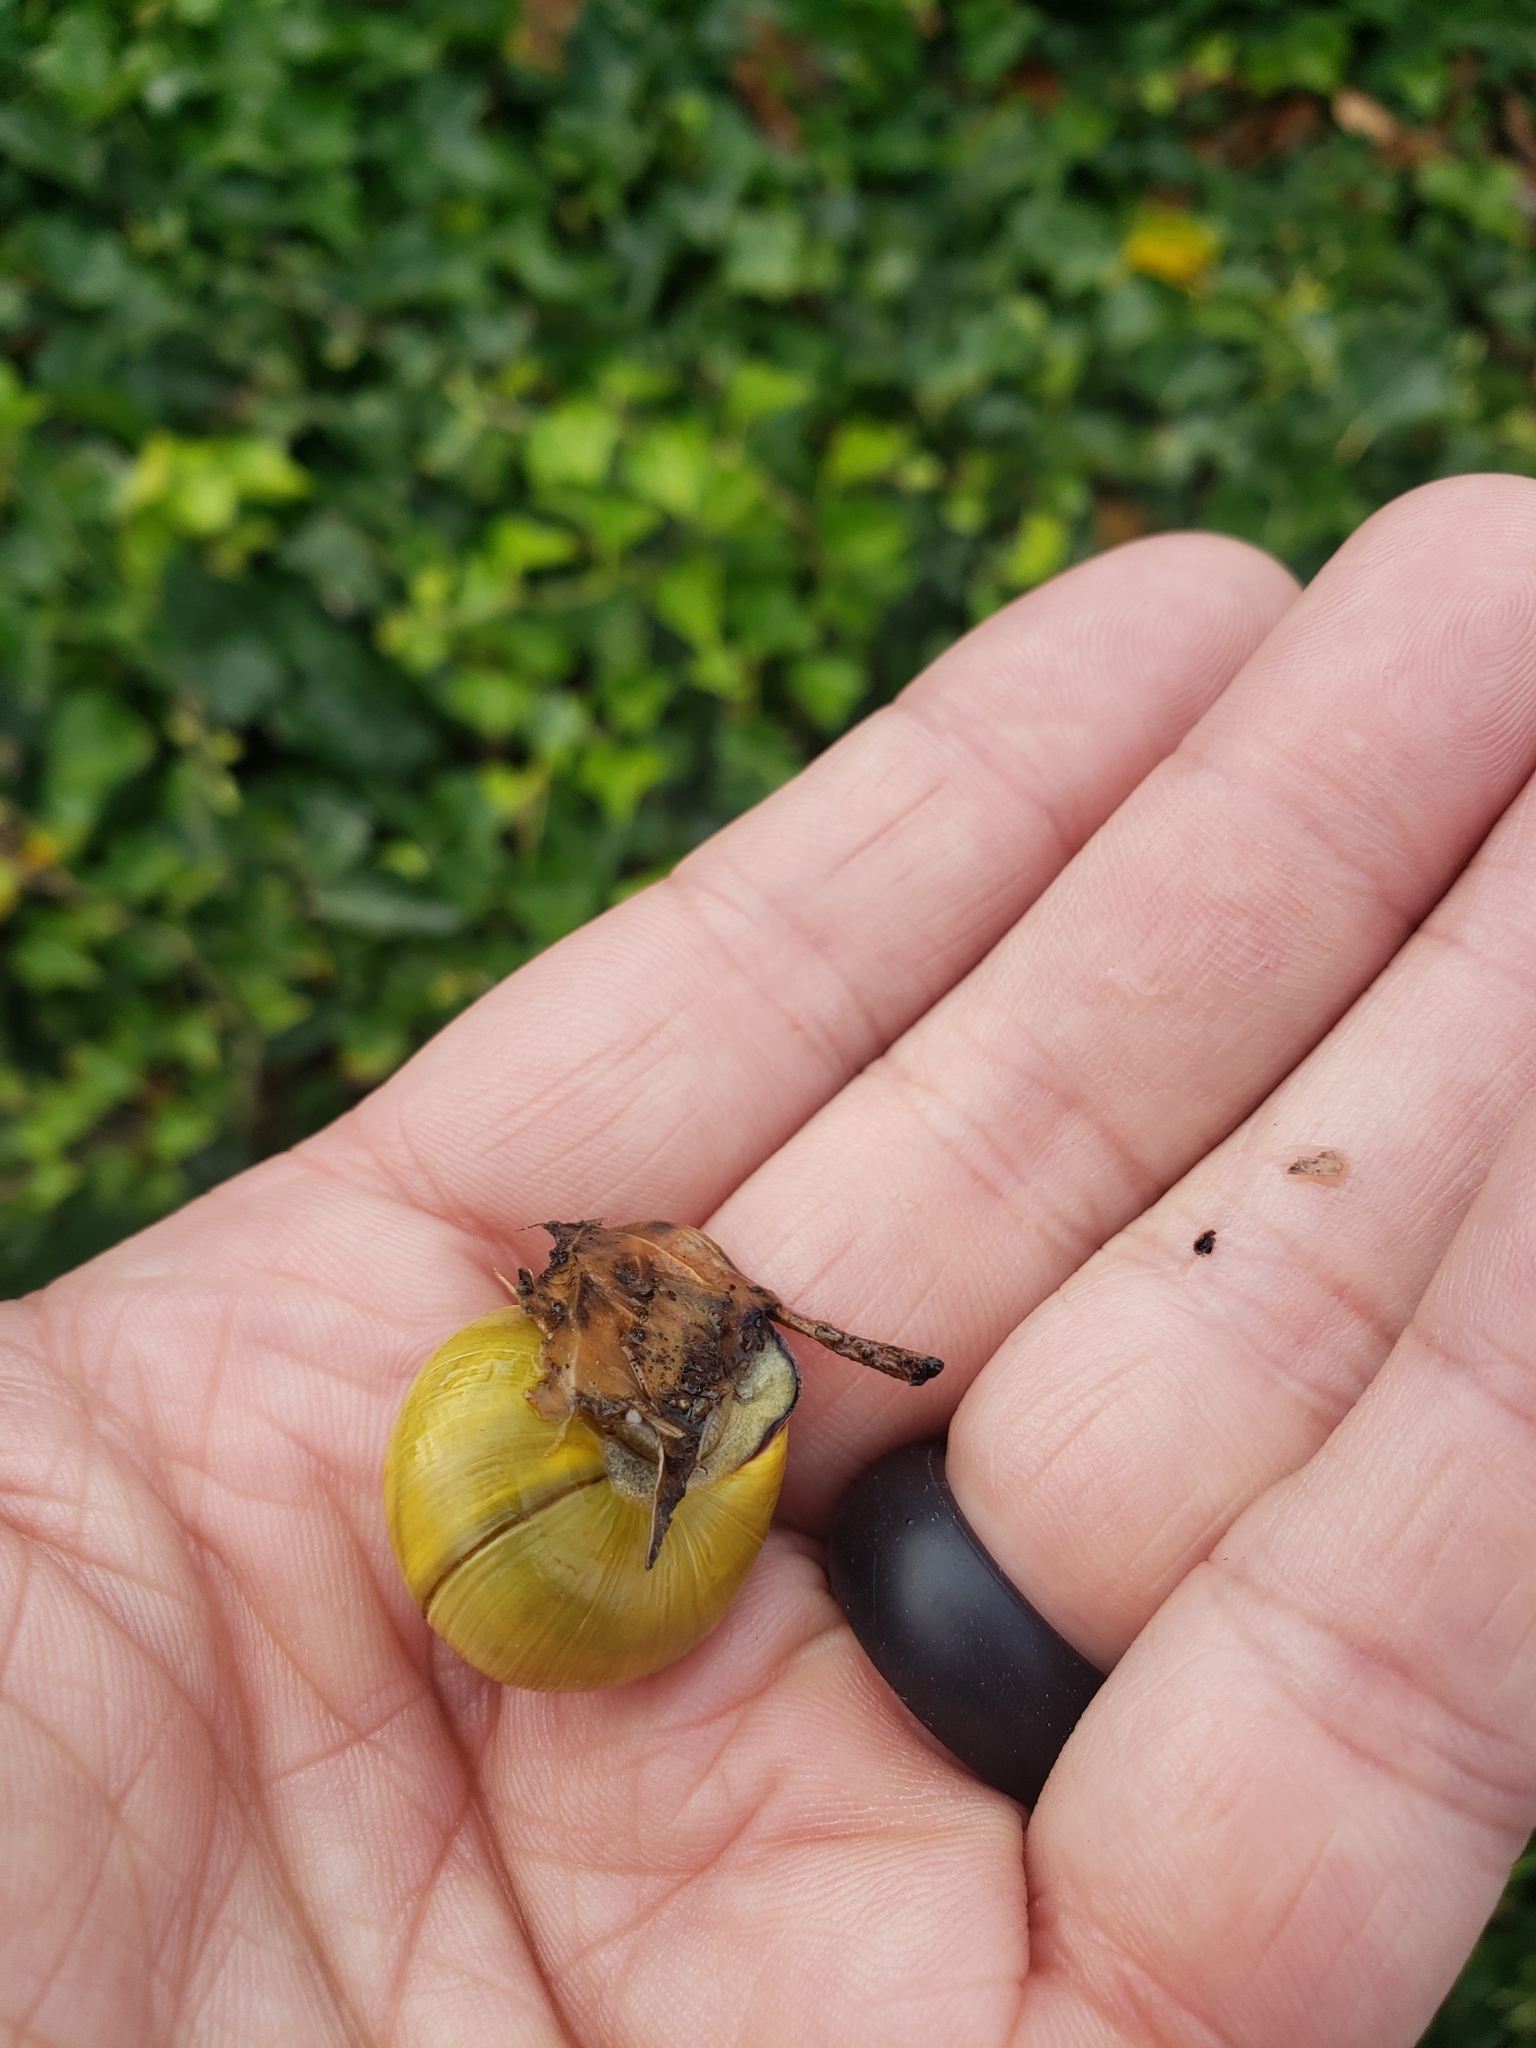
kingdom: Animalia
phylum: Mollusca
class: Gastropoda
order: Stylommatophora
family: Helicidae
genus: Cepaea
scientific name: Cepaea nemoralis
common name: Grovesnail
